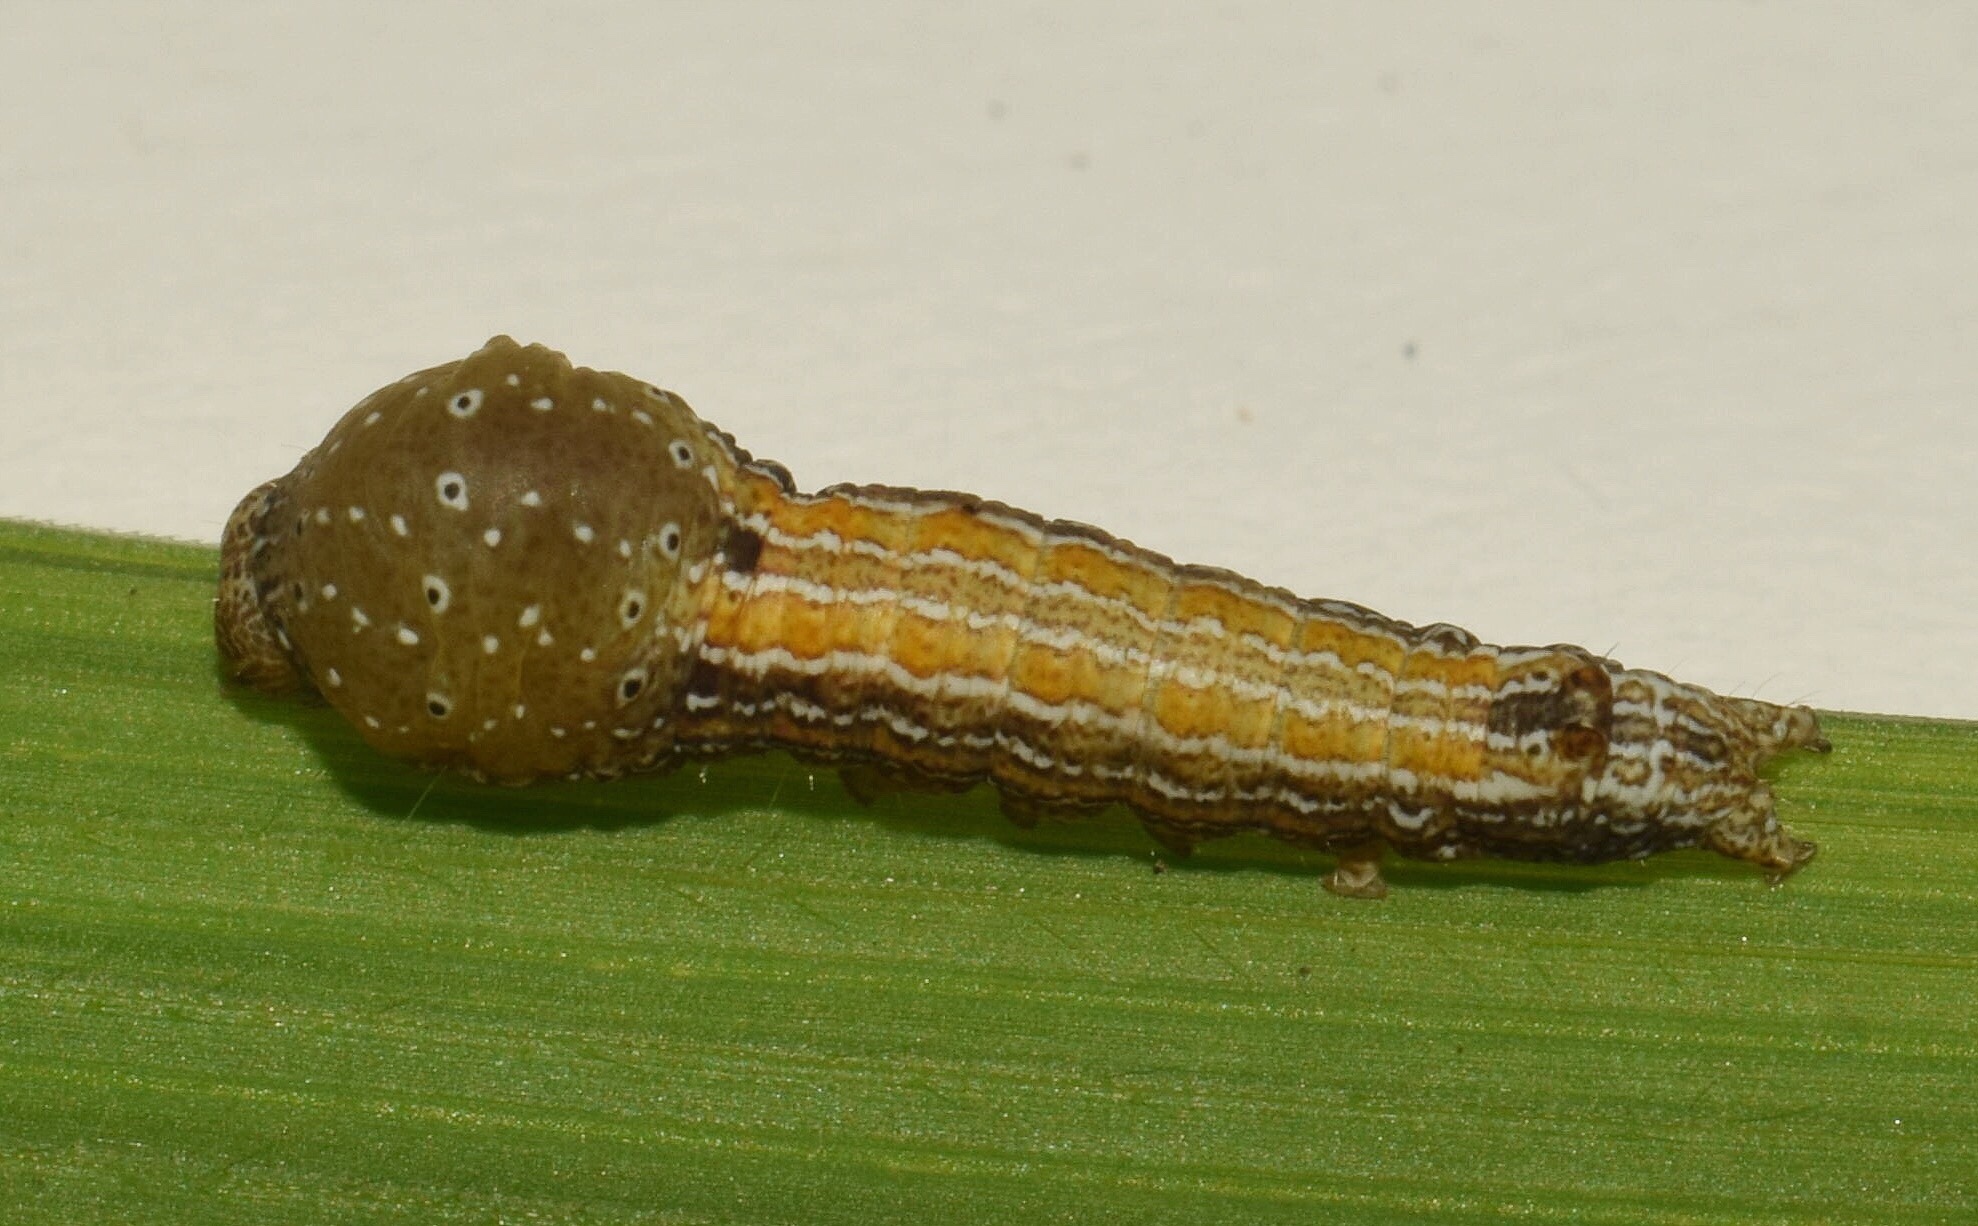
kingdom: Animalia
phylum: Arthropoda
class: Insecta
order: Lepidoptera
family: Nolidae
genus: Maurilia
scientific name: Maurilia arcuata
